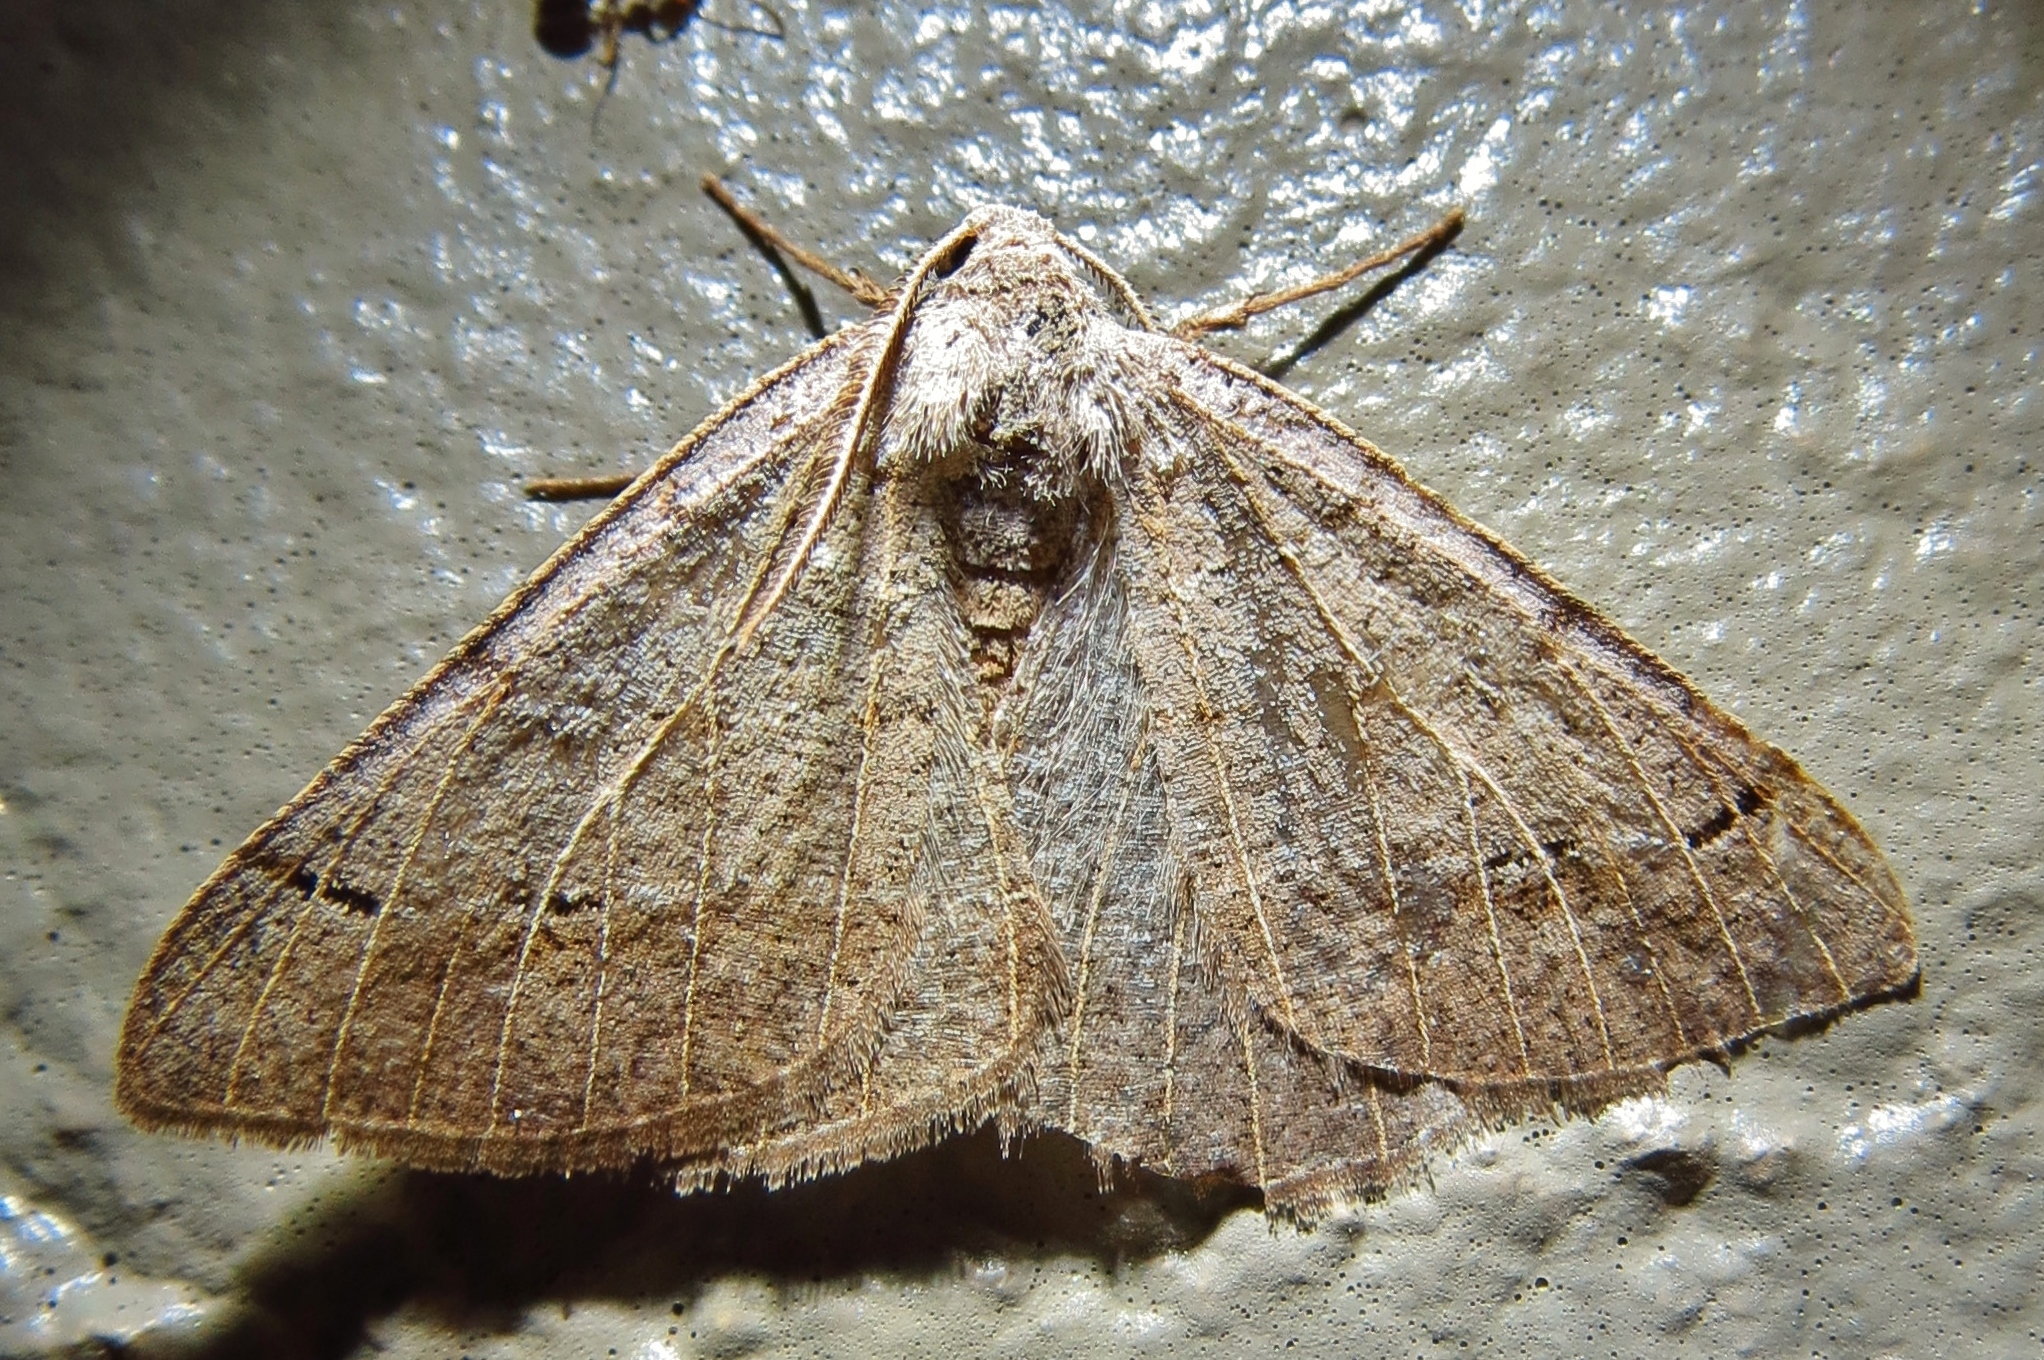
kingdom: Animalia
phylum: Arthropoda
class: Insecta
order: Lepidoptera
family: Geometridae
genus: Isturgia
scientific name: Isturgia dislocaria
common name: Pale-viened enconista
